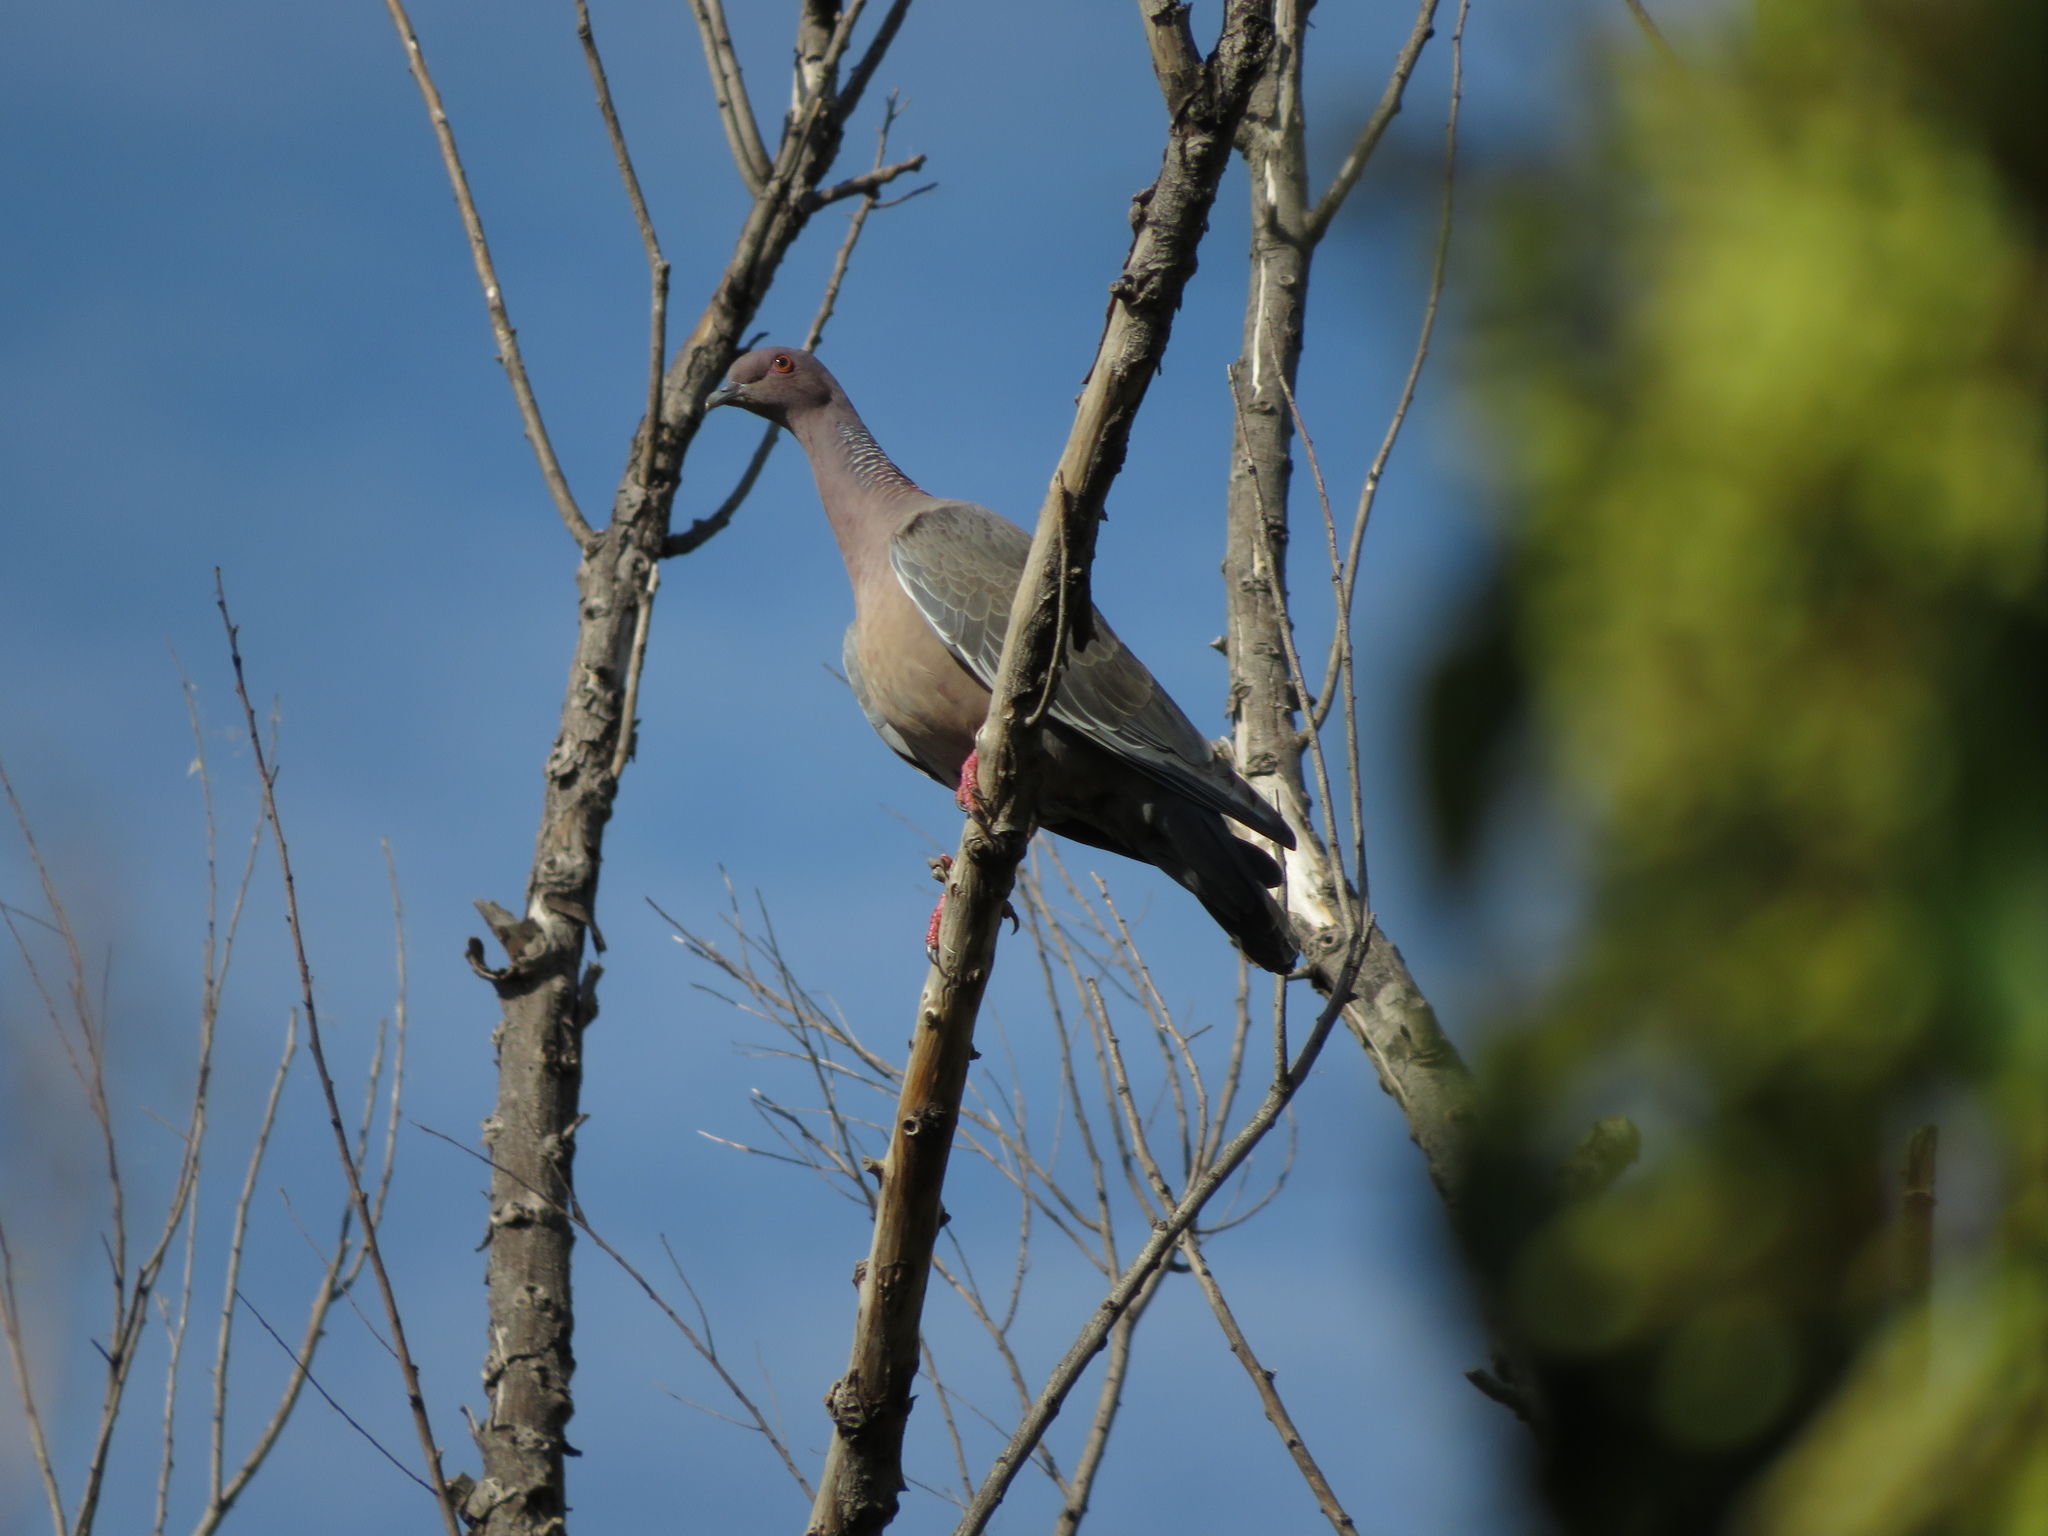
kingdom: Animalia
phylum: Chordata
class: Aves
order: Columbiformes
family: Columbidae
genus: Patagioenas
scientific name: Patagioenas picazuro
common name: Picazuro pigeon
